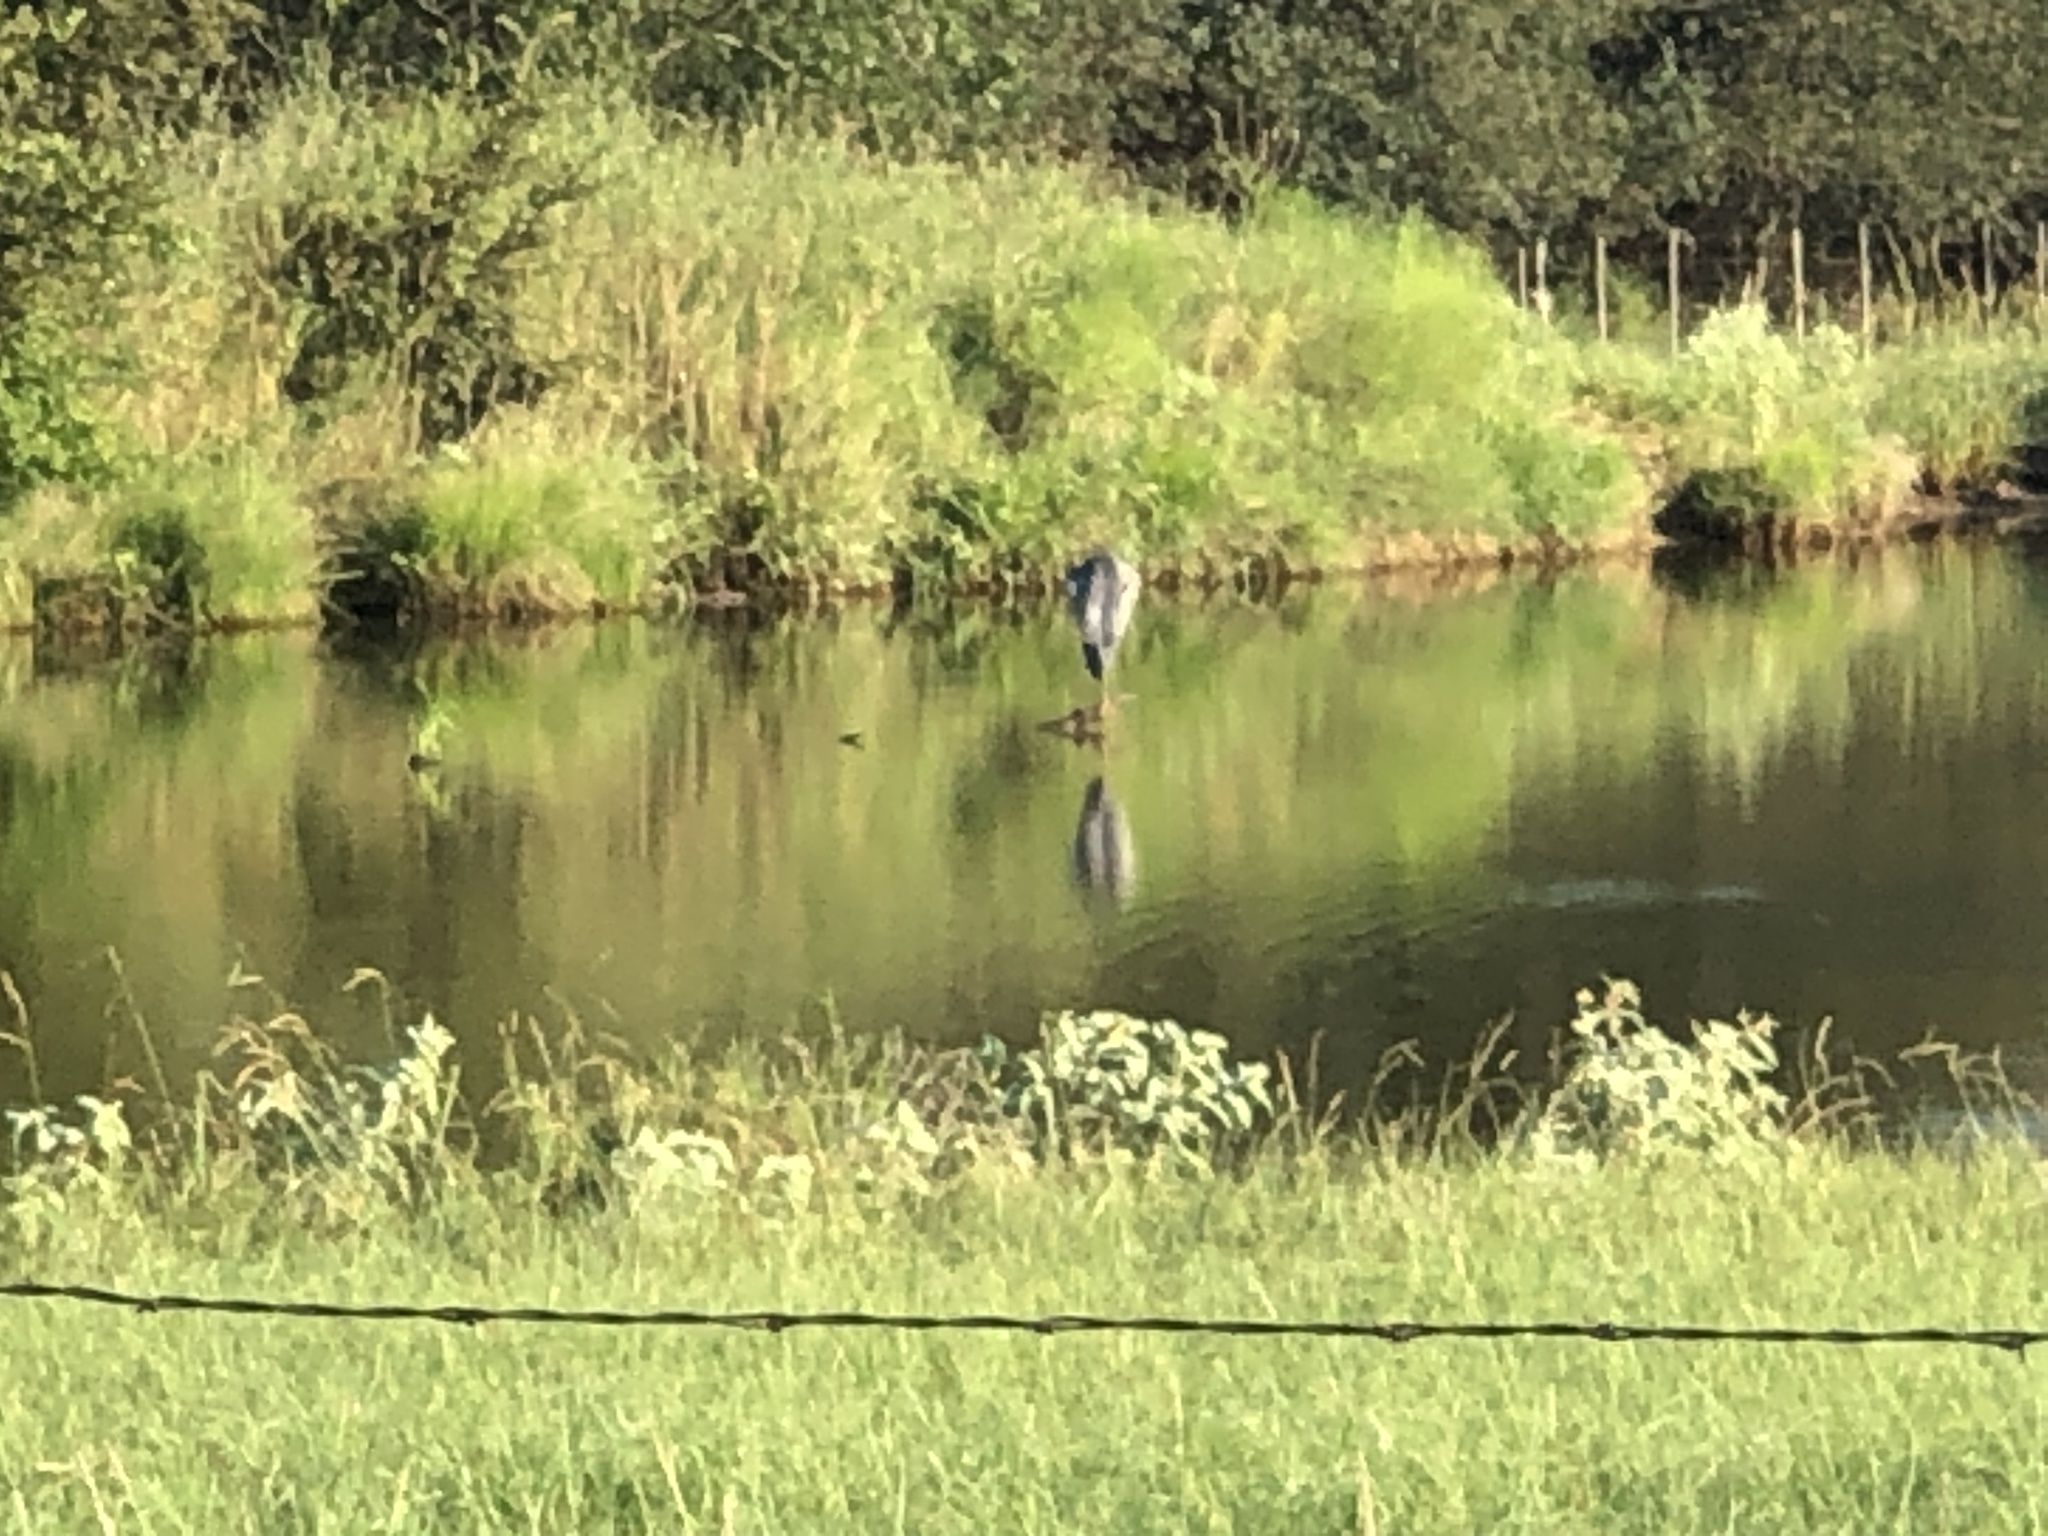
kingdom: Animalia
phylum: Chordata
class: Aves
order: Pelecaniformes
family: Ardeidae
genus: Ardea
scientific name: Ardea herodias
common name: Great blue heron
